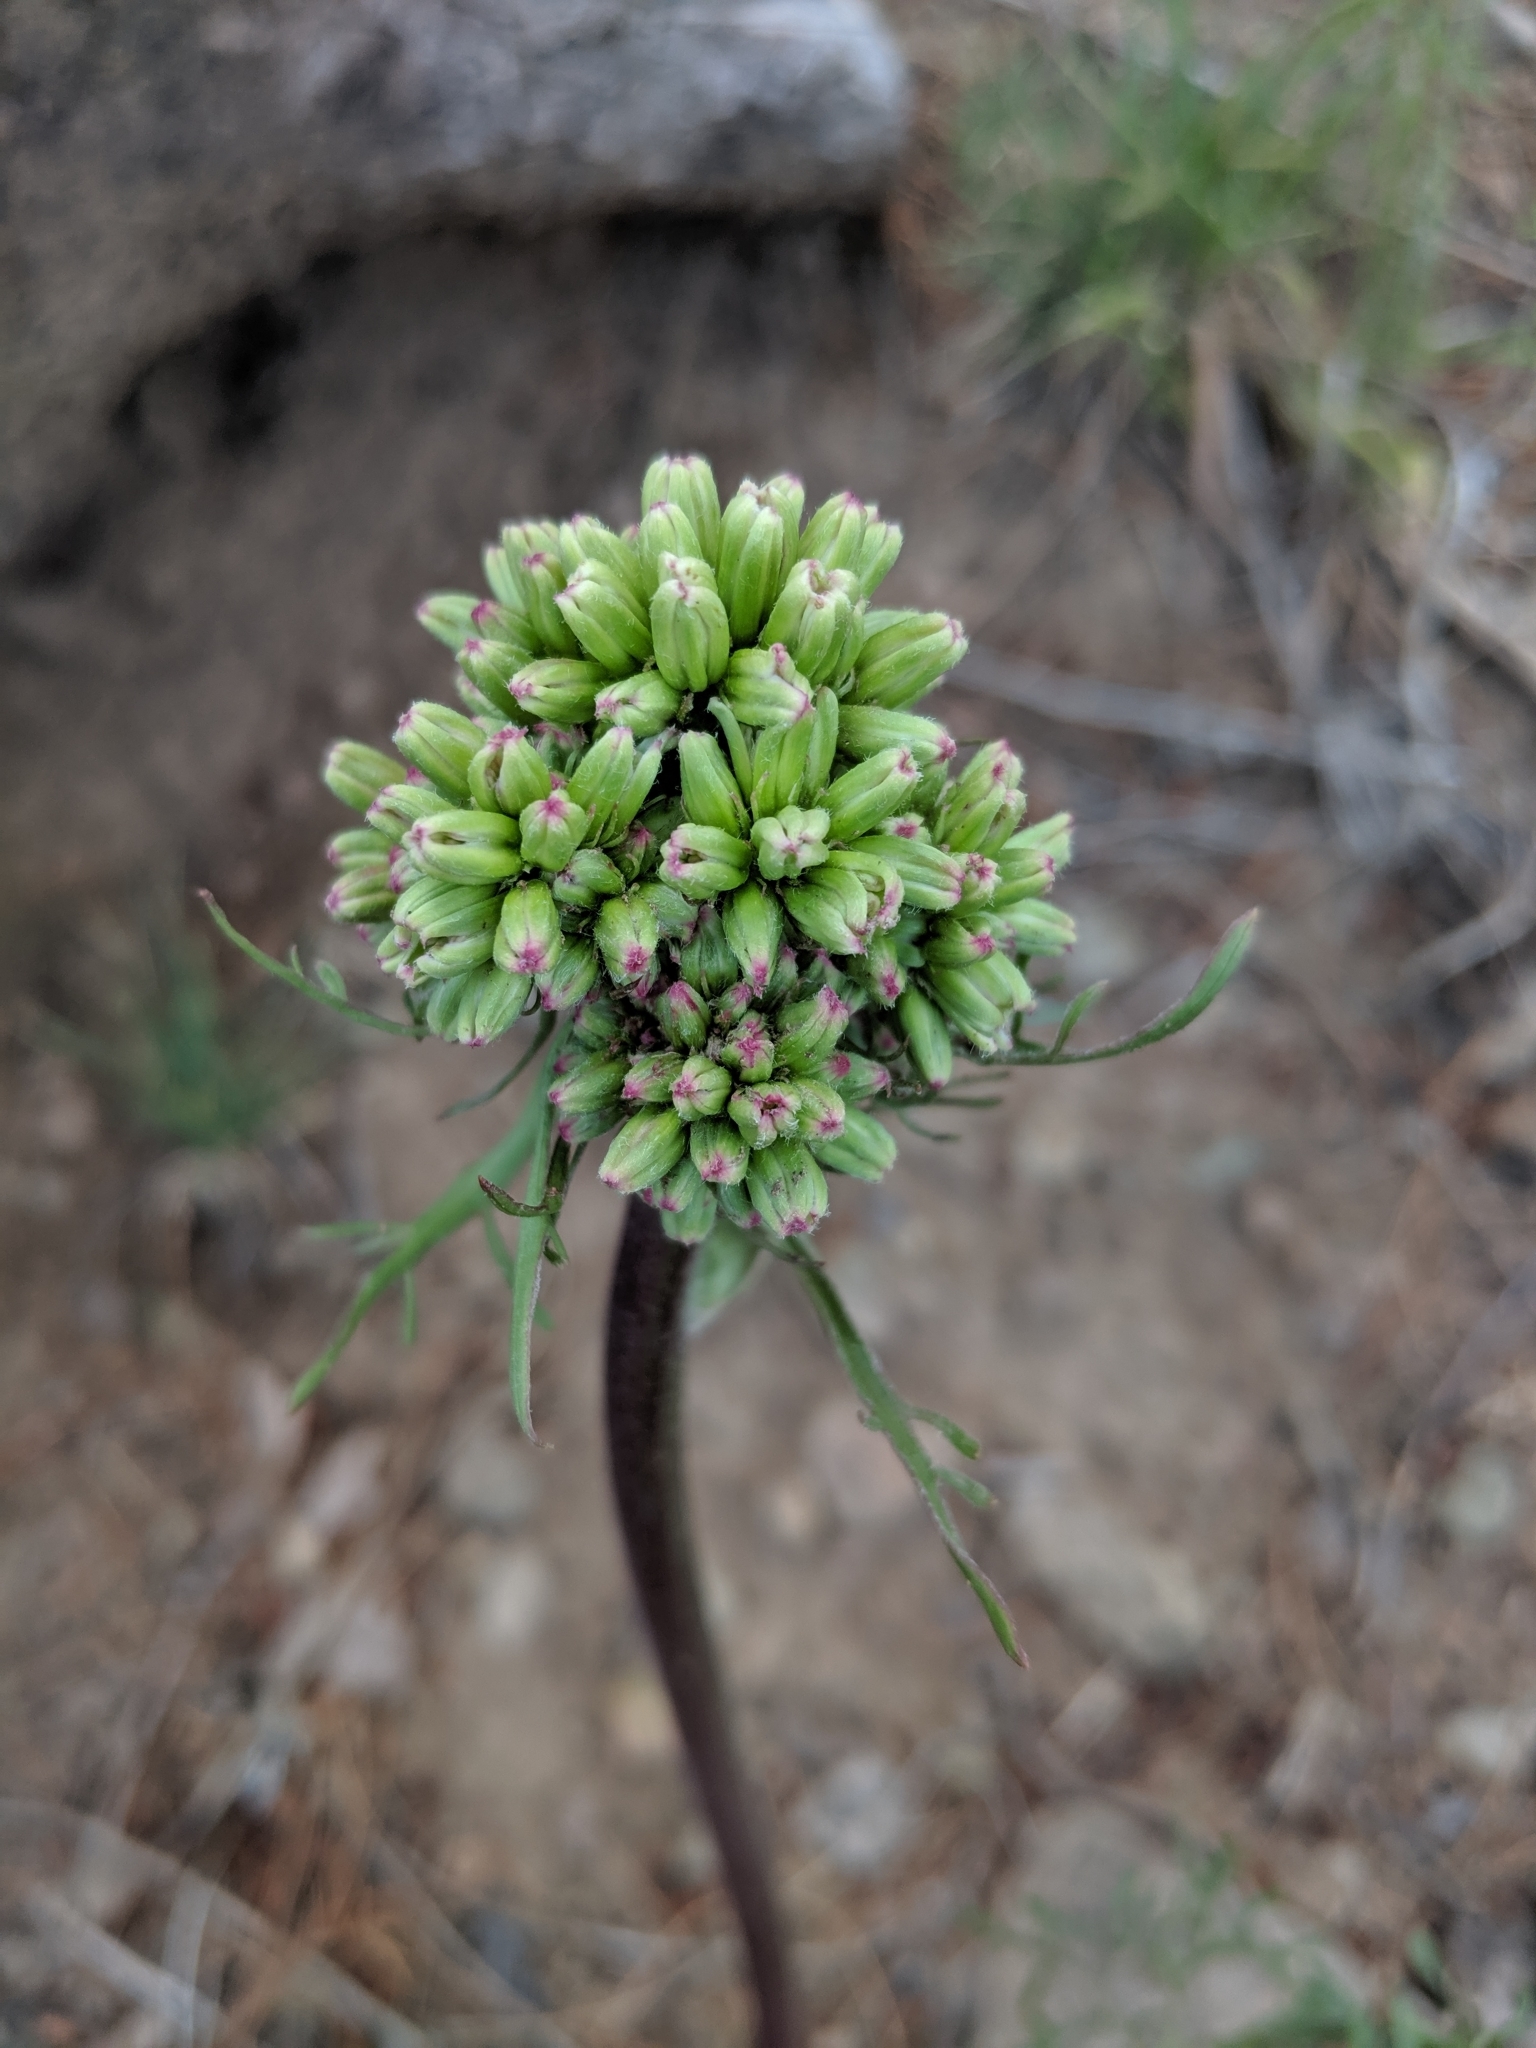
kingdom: Plantae
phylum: Tracheophyta
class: Magnoliopsida
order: Asterales
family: Asteraceae
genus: Psacalium
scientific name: Psacalium decompositum
